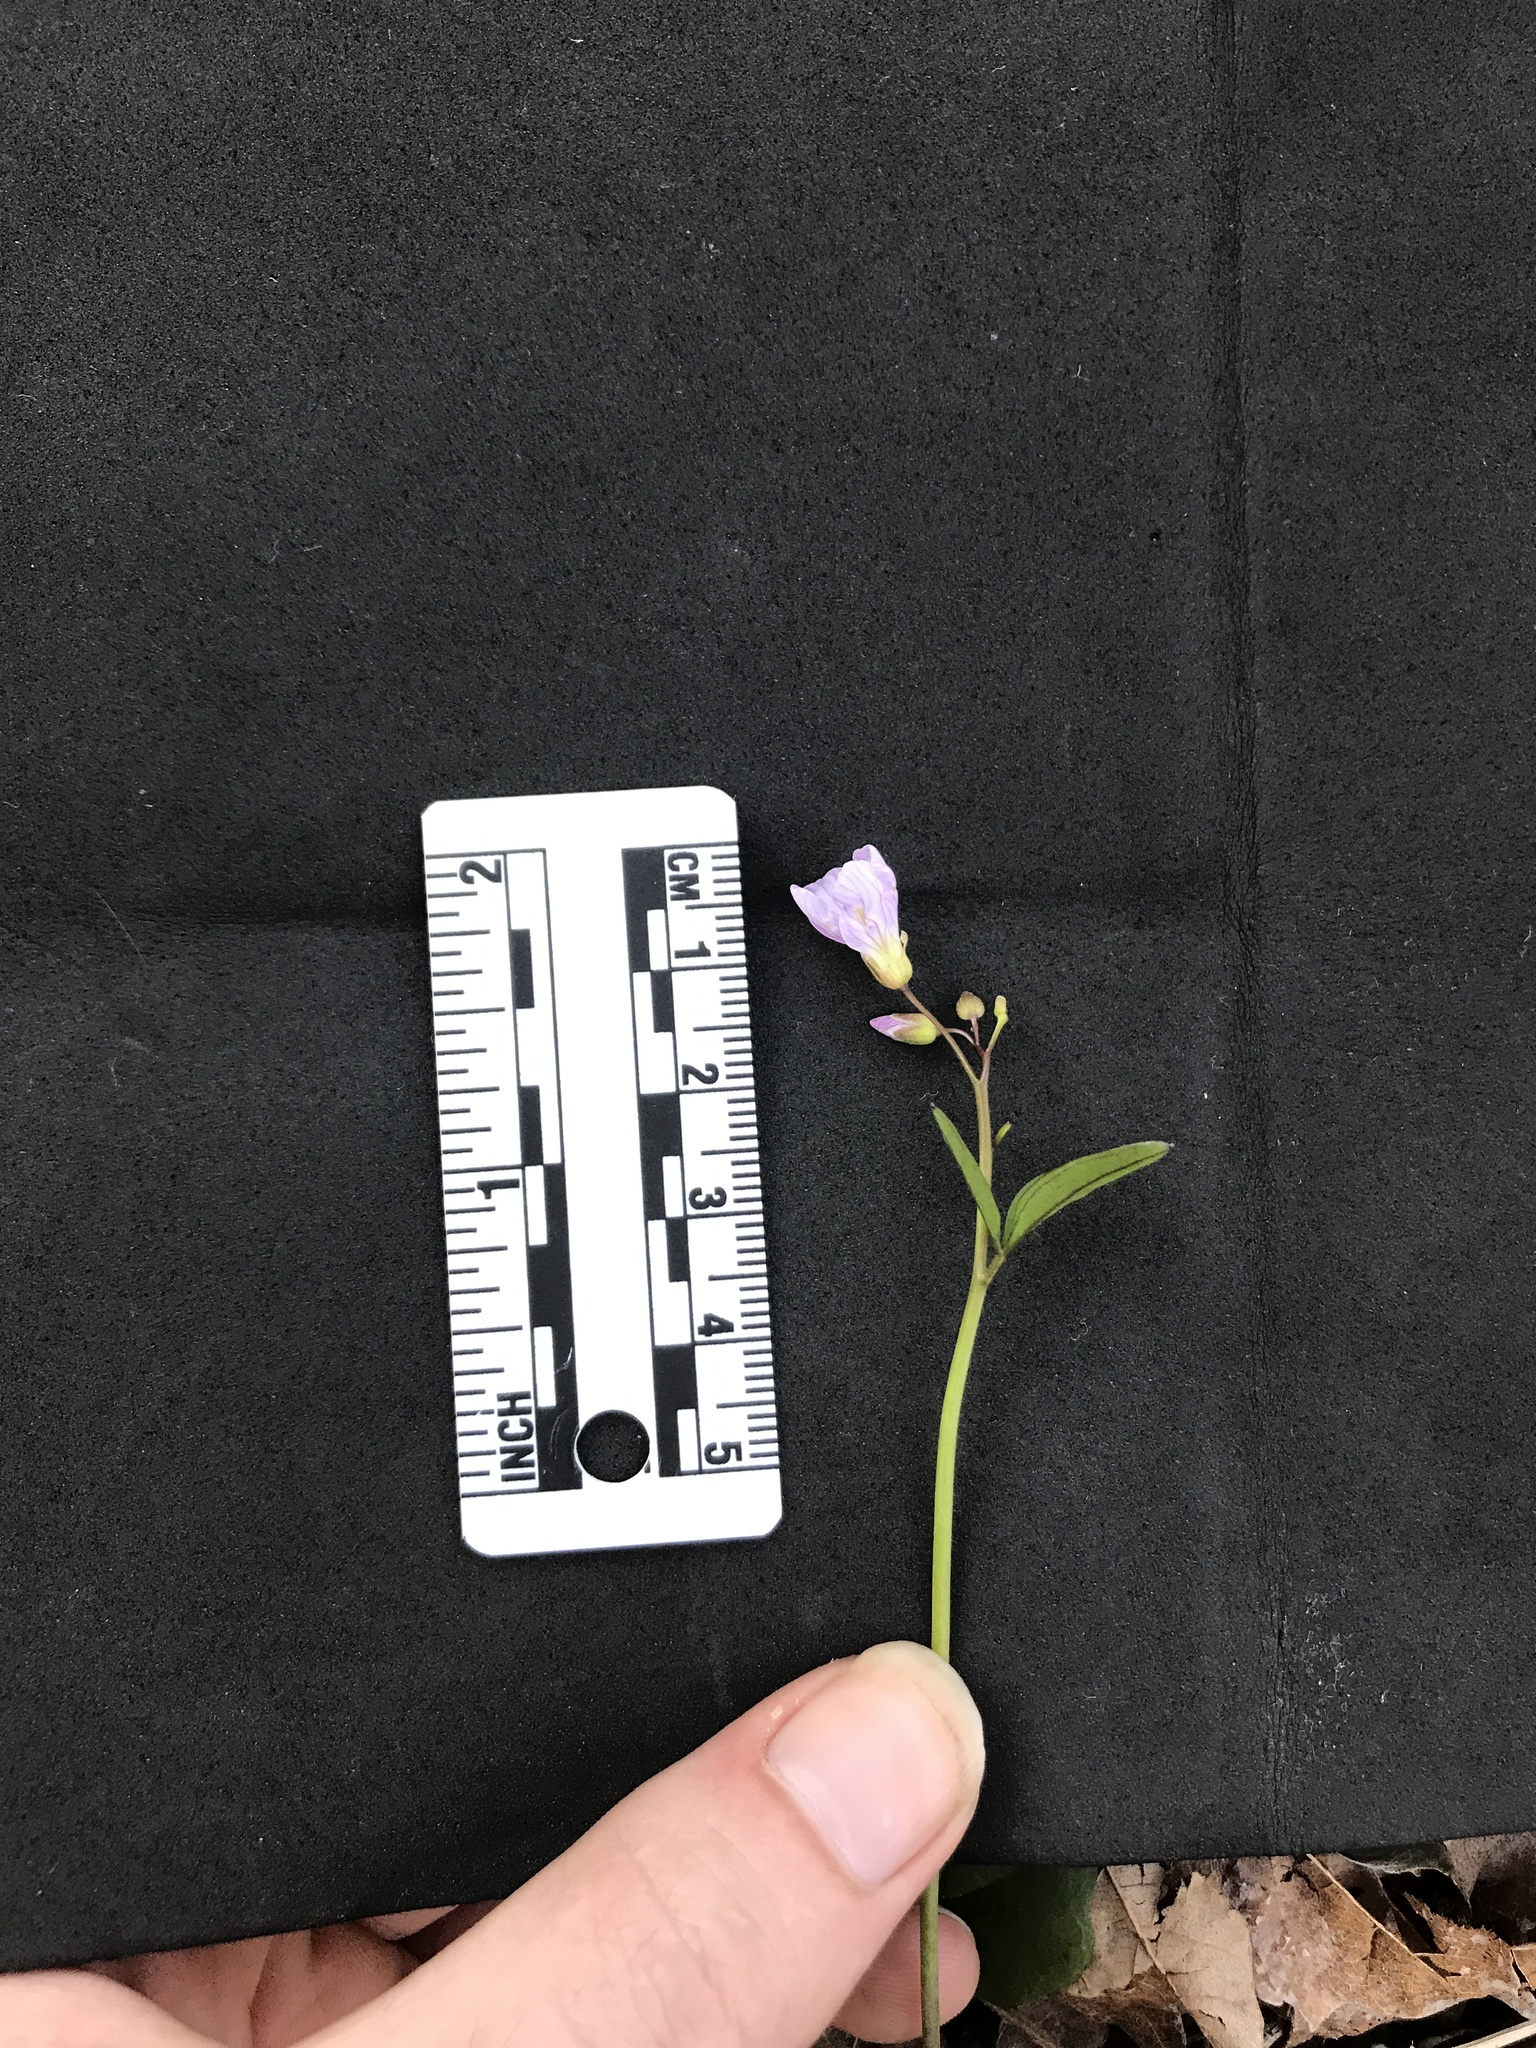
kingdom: Plantae
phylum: Tracheophyta
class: Magnoliopsida
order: Brassicales
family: Brassicaceae
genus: Cardamine
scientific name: Cardamine nuttallii
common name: Nuttall's toothwort
